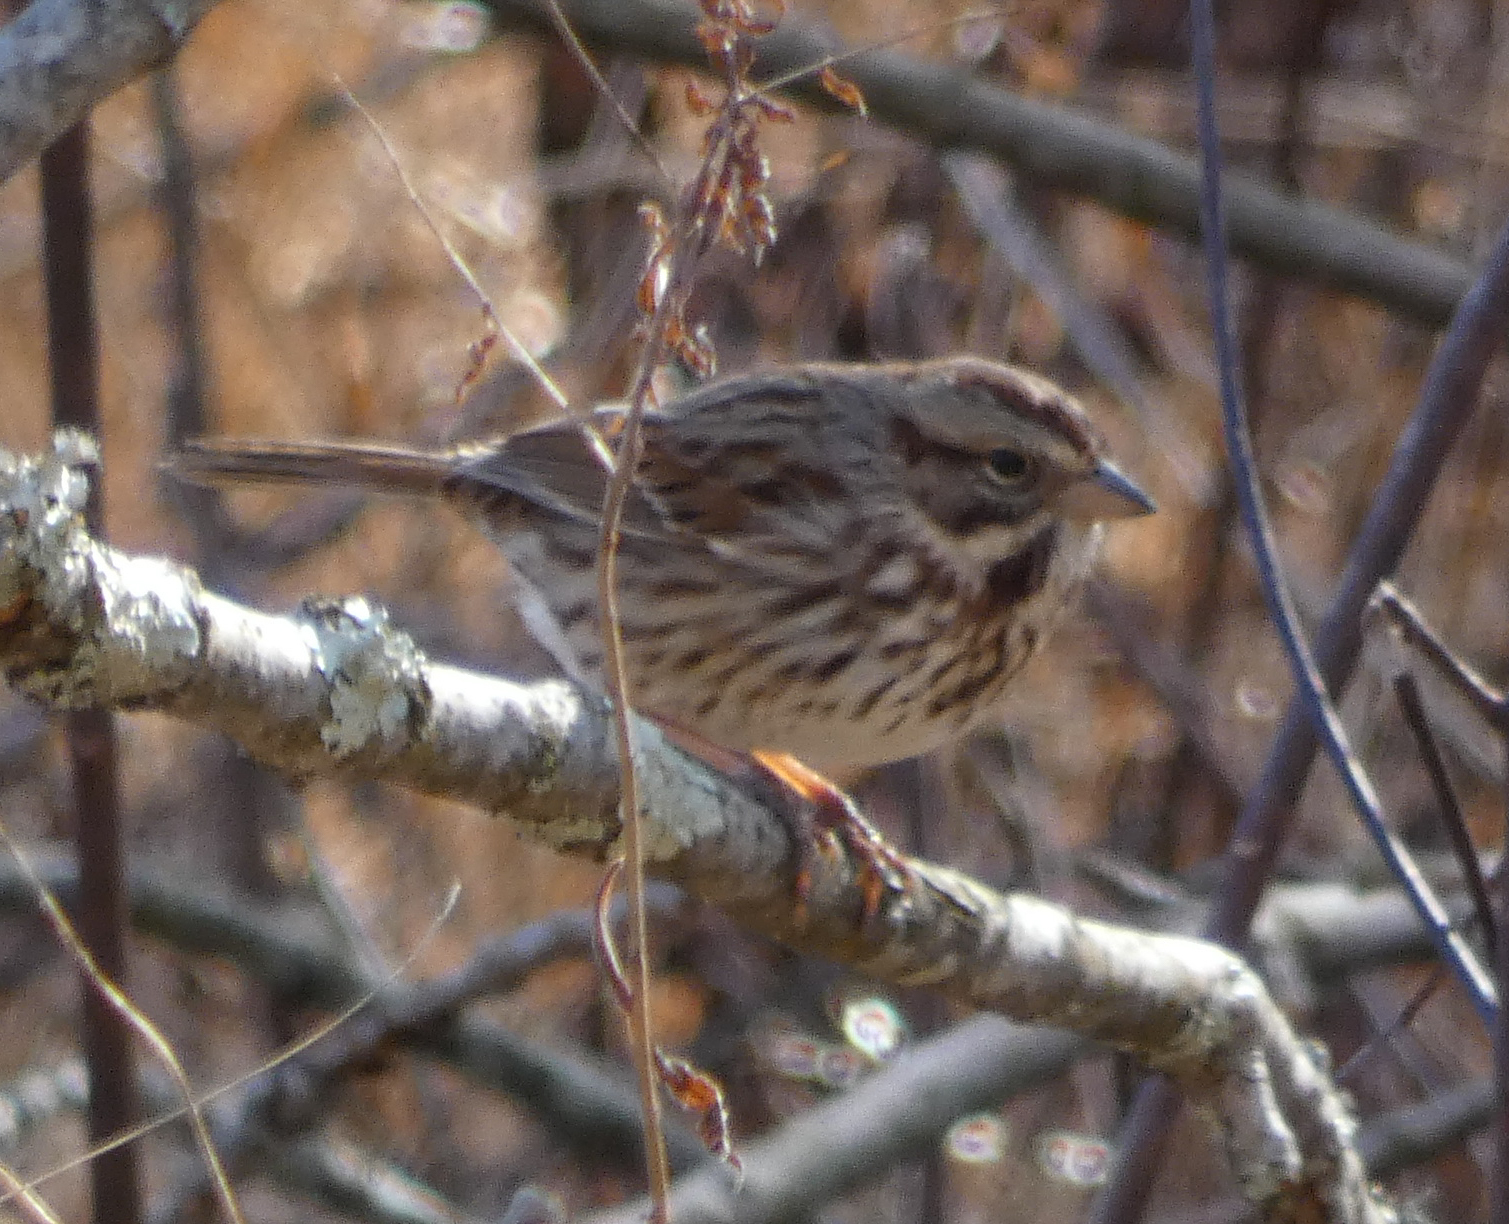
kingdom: Animalia
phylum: Chordata
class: Aves
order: Passeriformes
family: Passerellidae
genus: Melospiza
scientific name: Melospiza melodia
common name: Song sparrow
